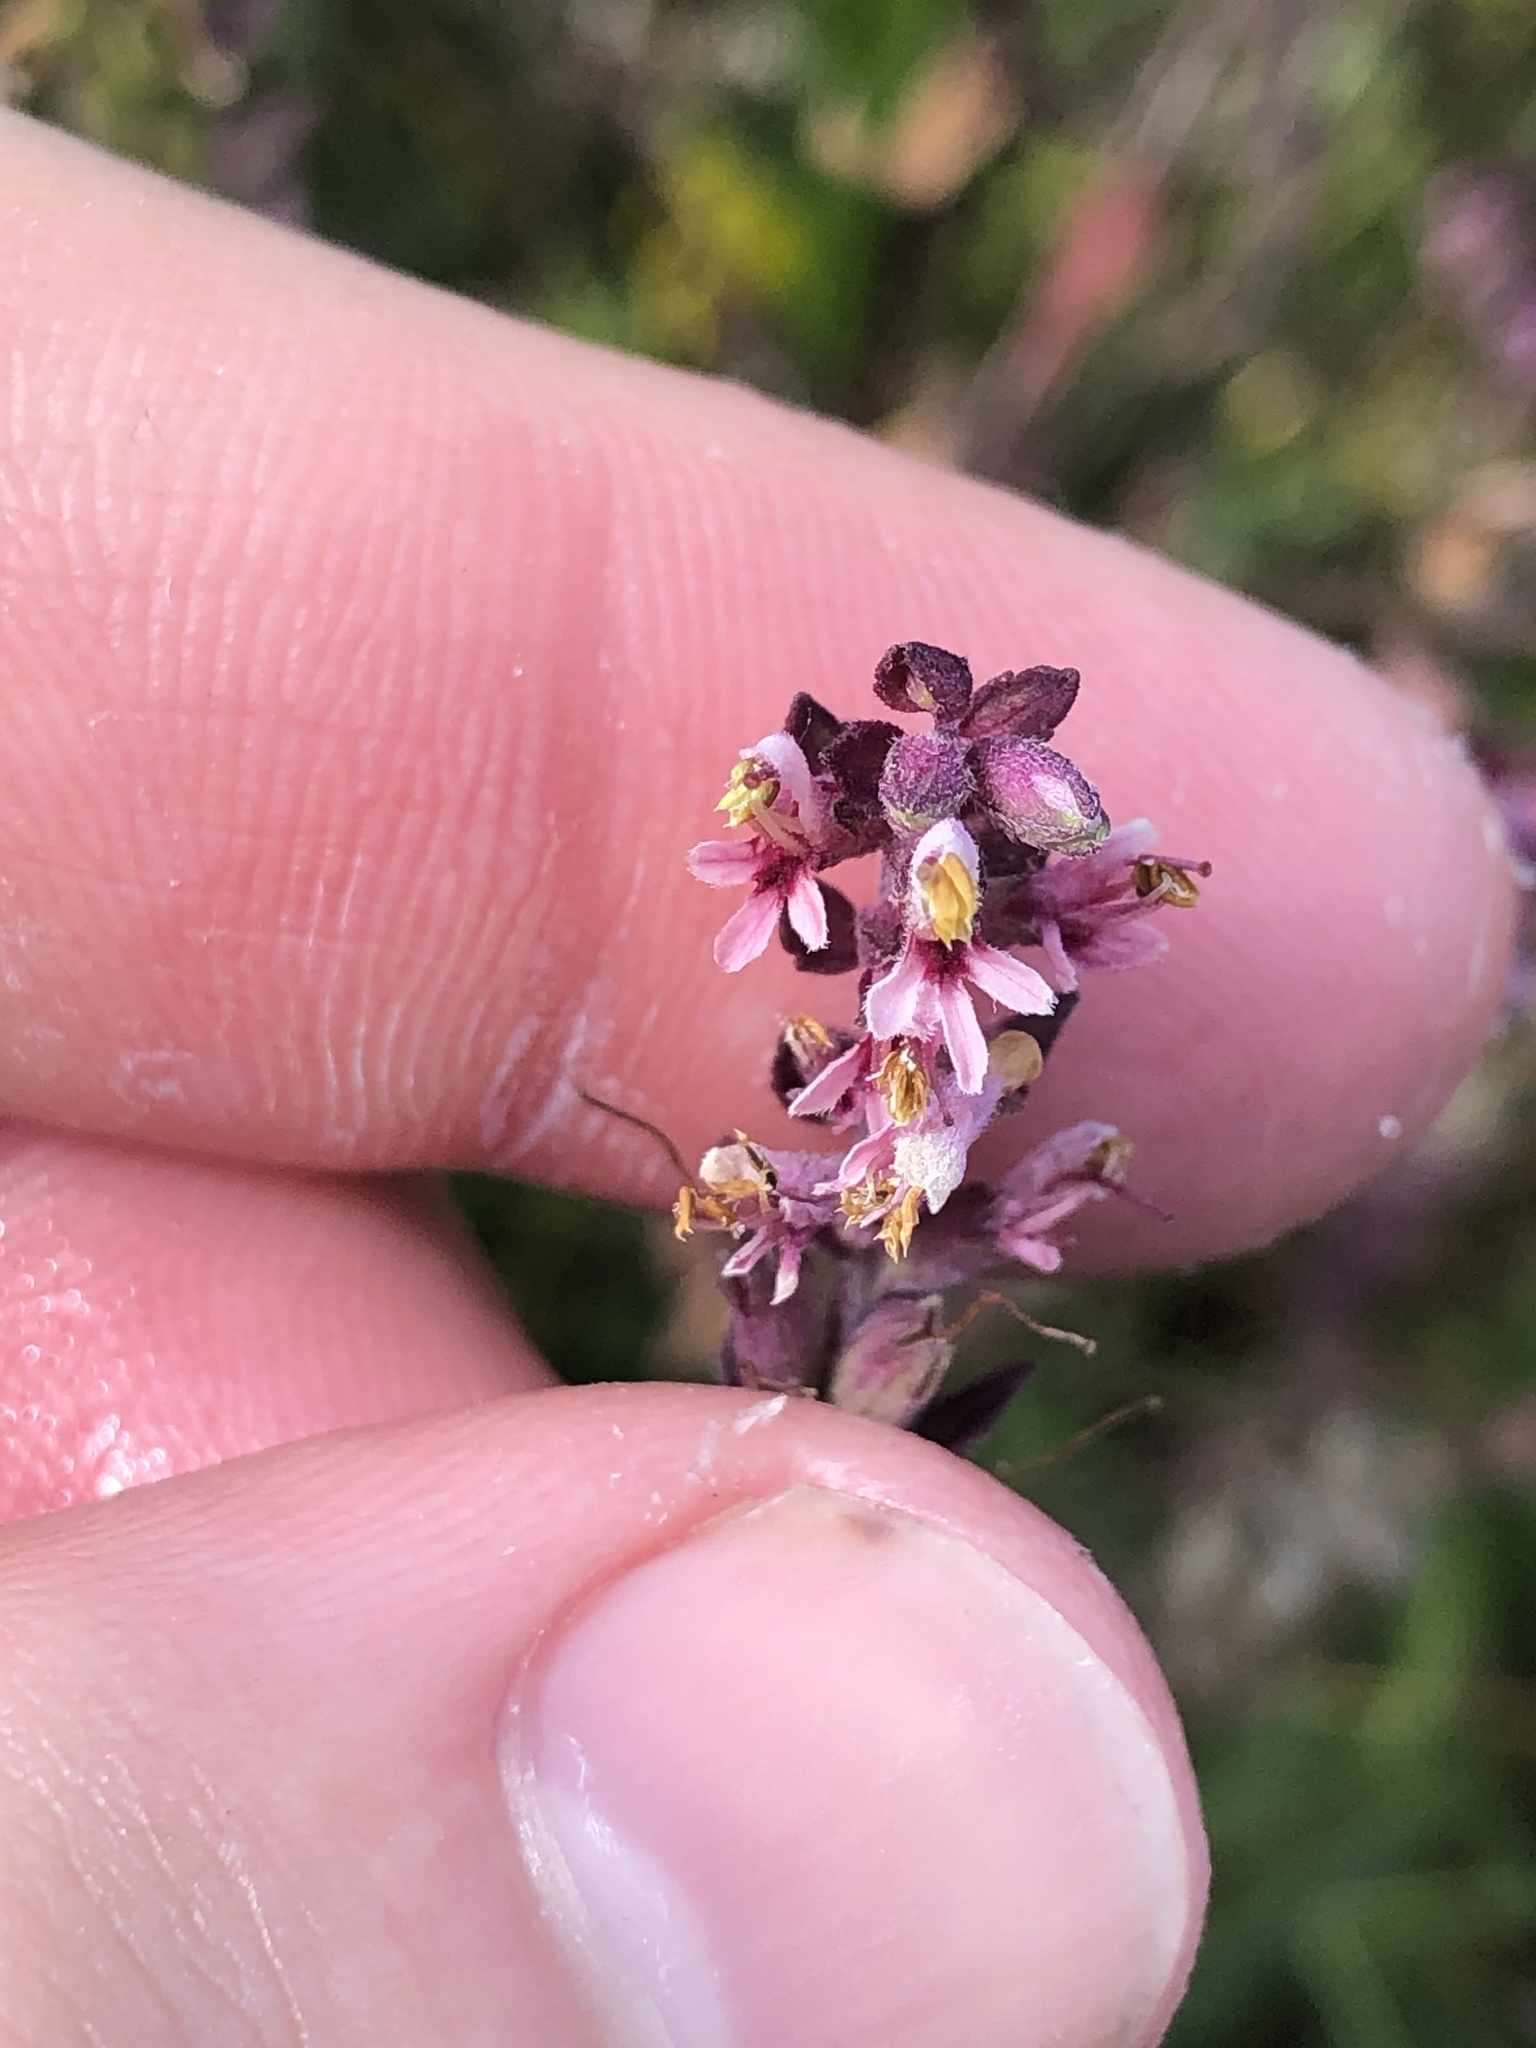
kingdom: Plantae
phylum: Tracheophyta
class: Magnoliopsida
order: Lamiales
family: Orobanchaceae
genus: Odontites
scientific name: Odontites vulgaris
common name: Broomrape
